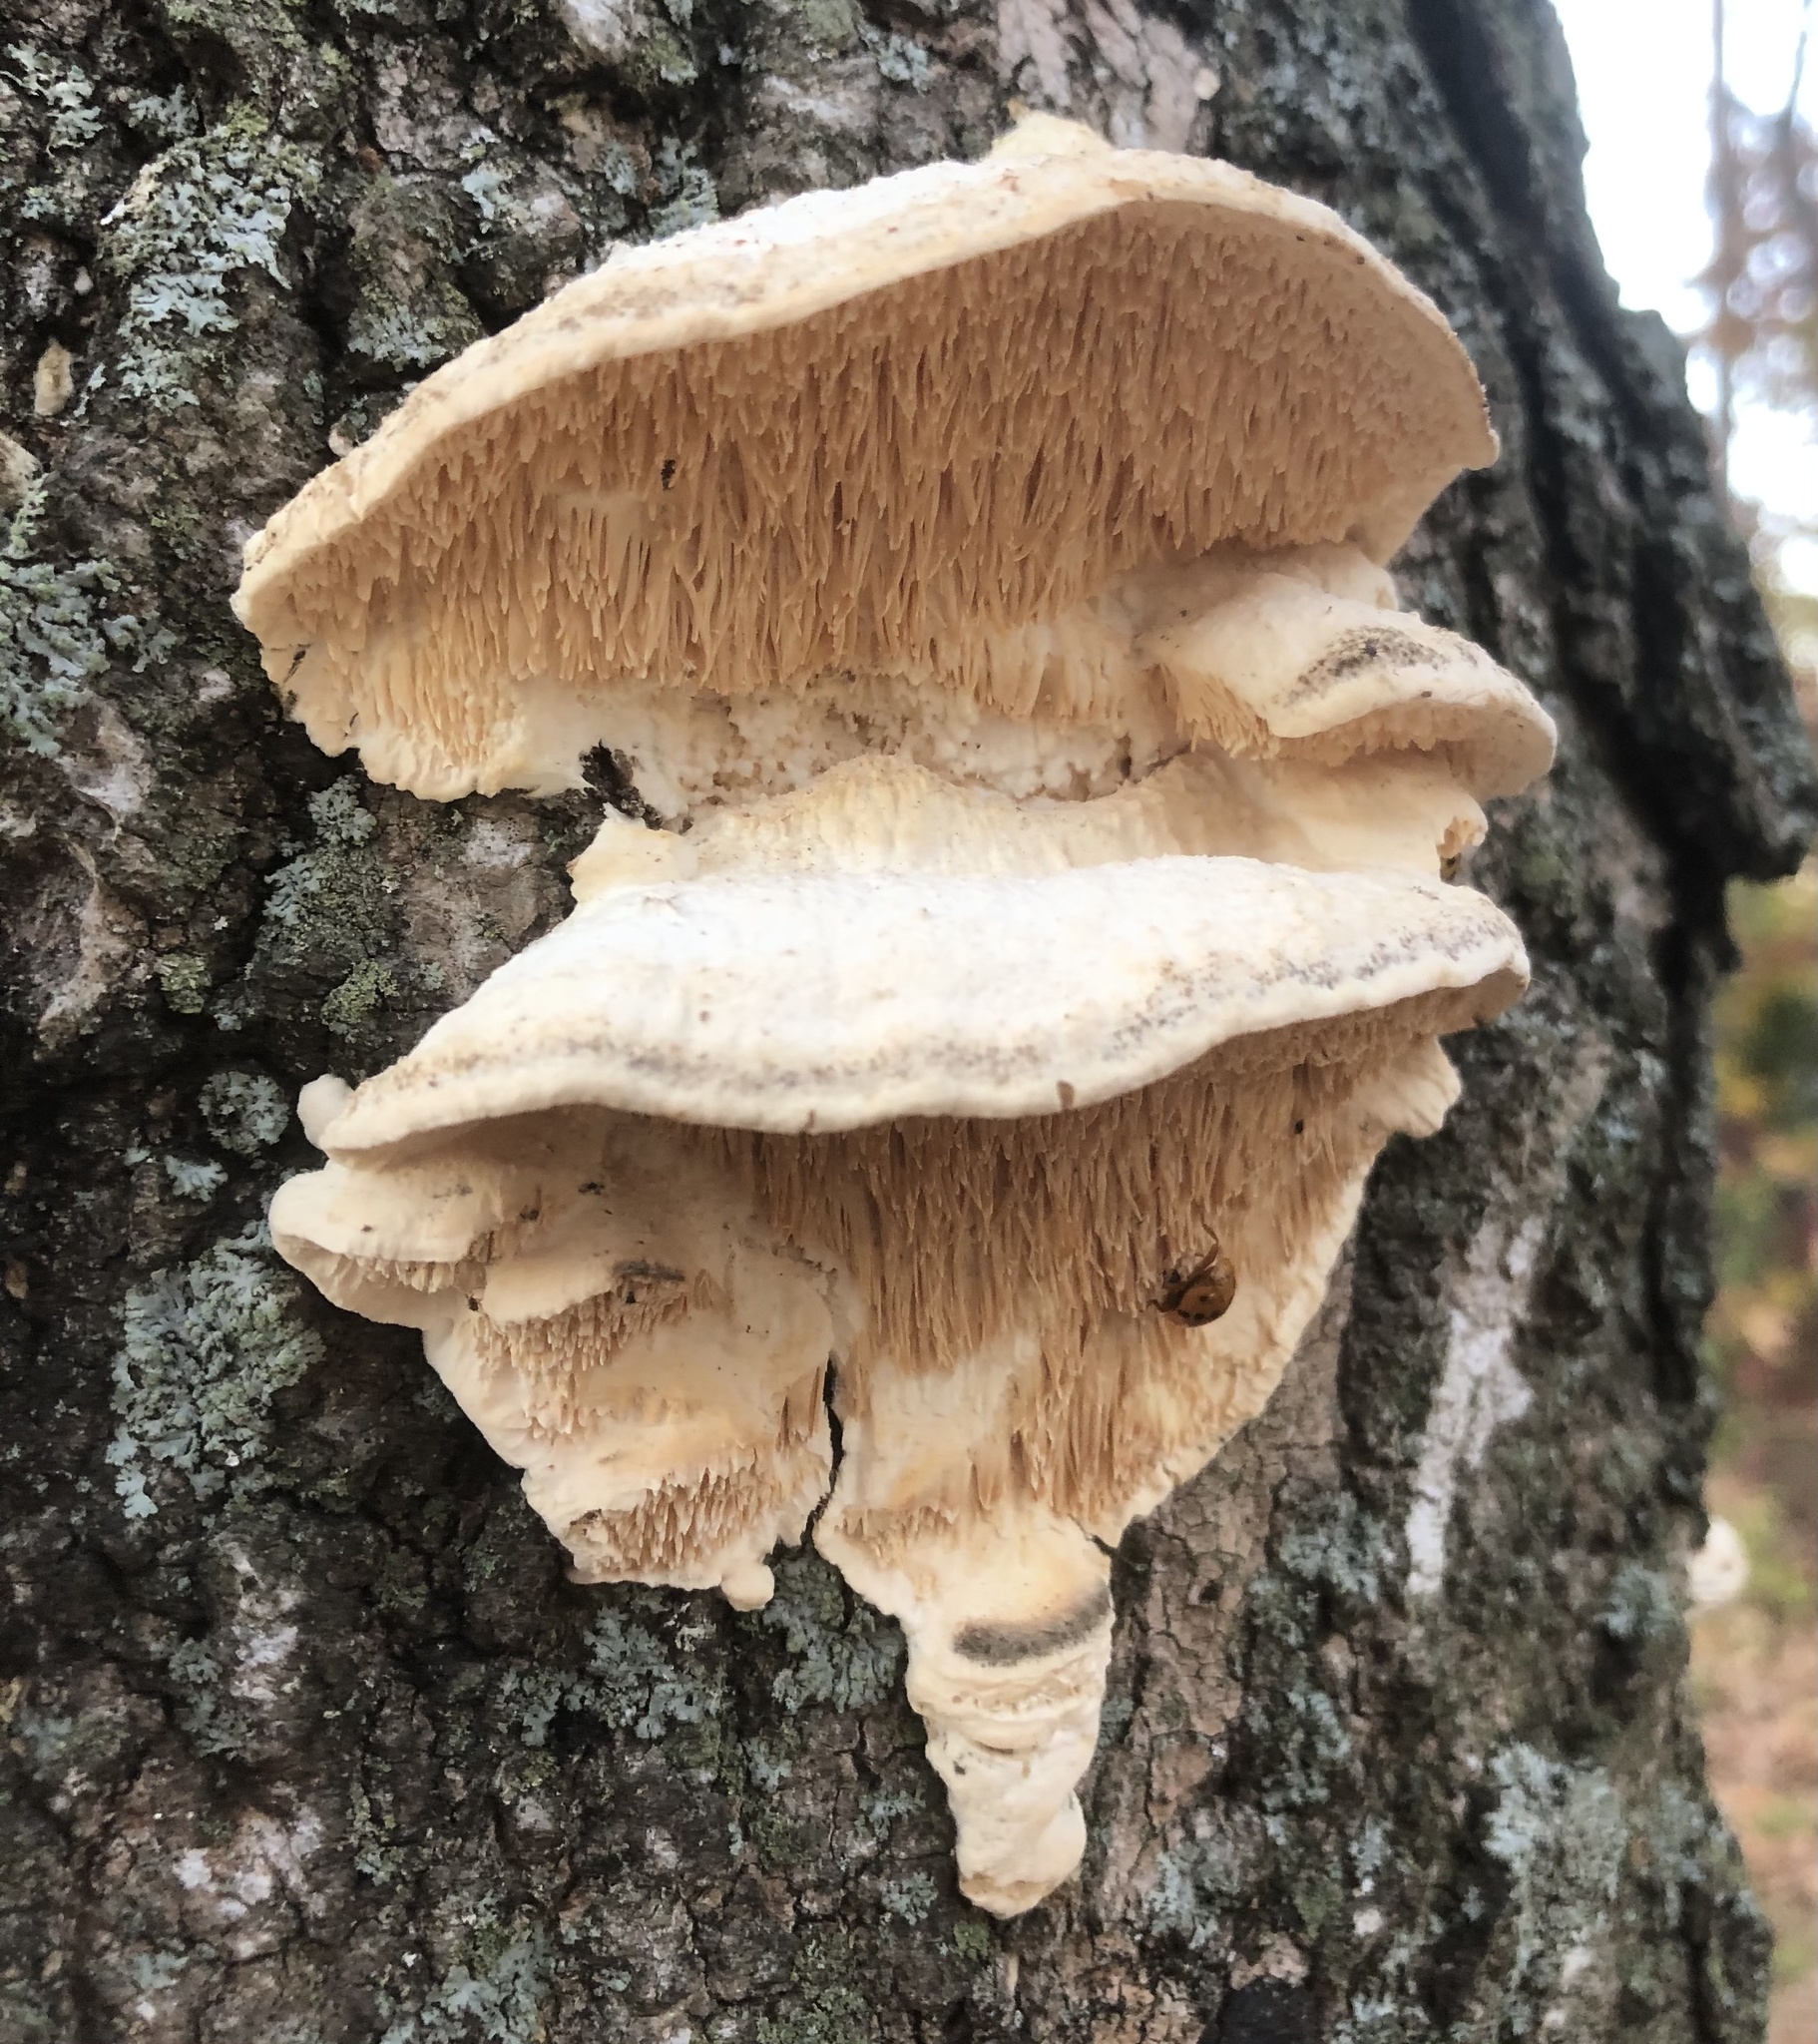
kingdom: Fungi
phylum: Basidiomycota
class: Agaricomycetes
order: Polyporales
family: Meruliaceae
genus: Irpiciporus
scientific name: Irpiciporus pachyodon
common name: Marshmallow polypore
